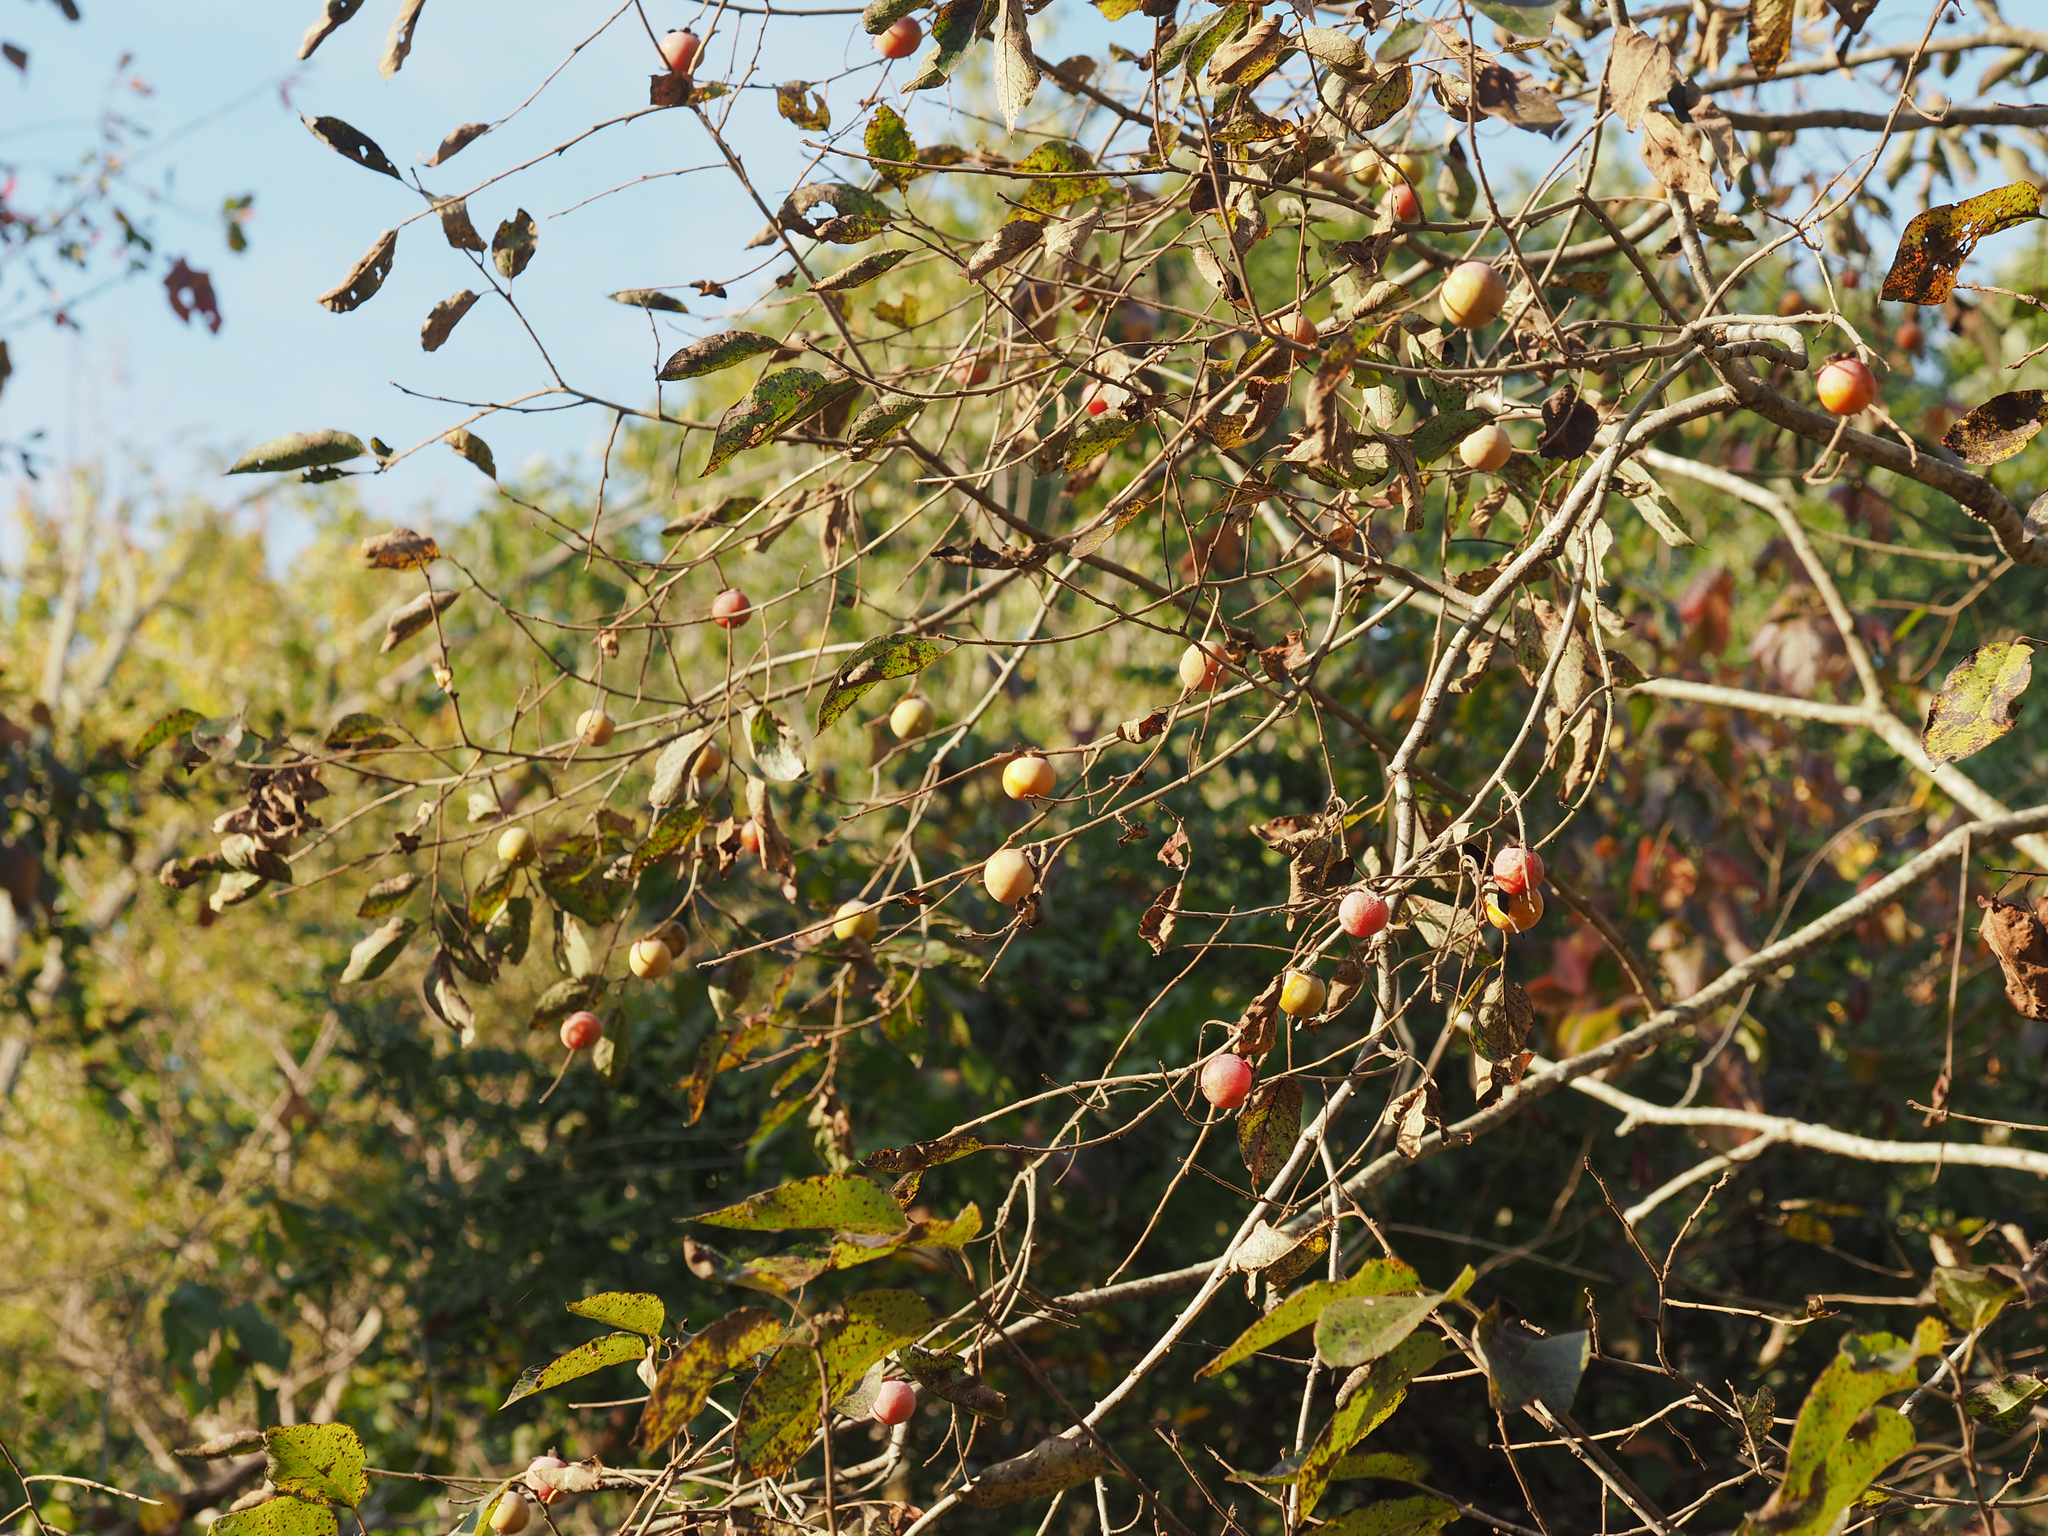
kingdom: Plantae
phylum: Tracheophyta
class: Magnoliopsida
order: Ericales
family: Ebenaceae
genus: Diospyros
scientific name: Diospyros virginiana
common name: Persimmon
